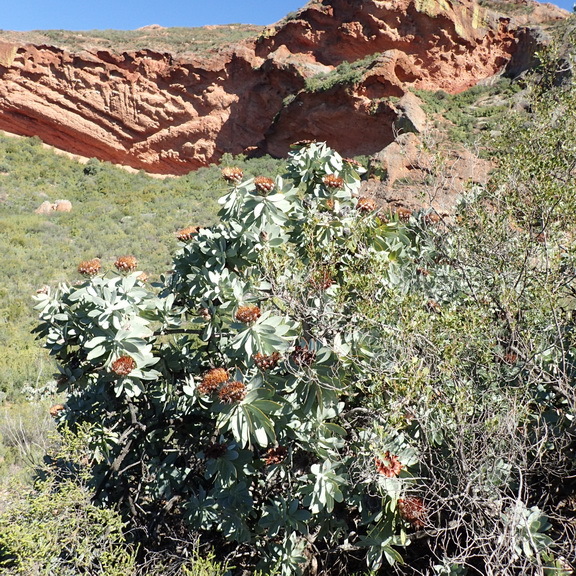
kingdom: Plantae
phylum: Tracheophyta
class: Magnoliopsida
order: Proteales
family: Proteaceae
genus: Protea
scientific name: Protea nitida
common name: Tree protea
